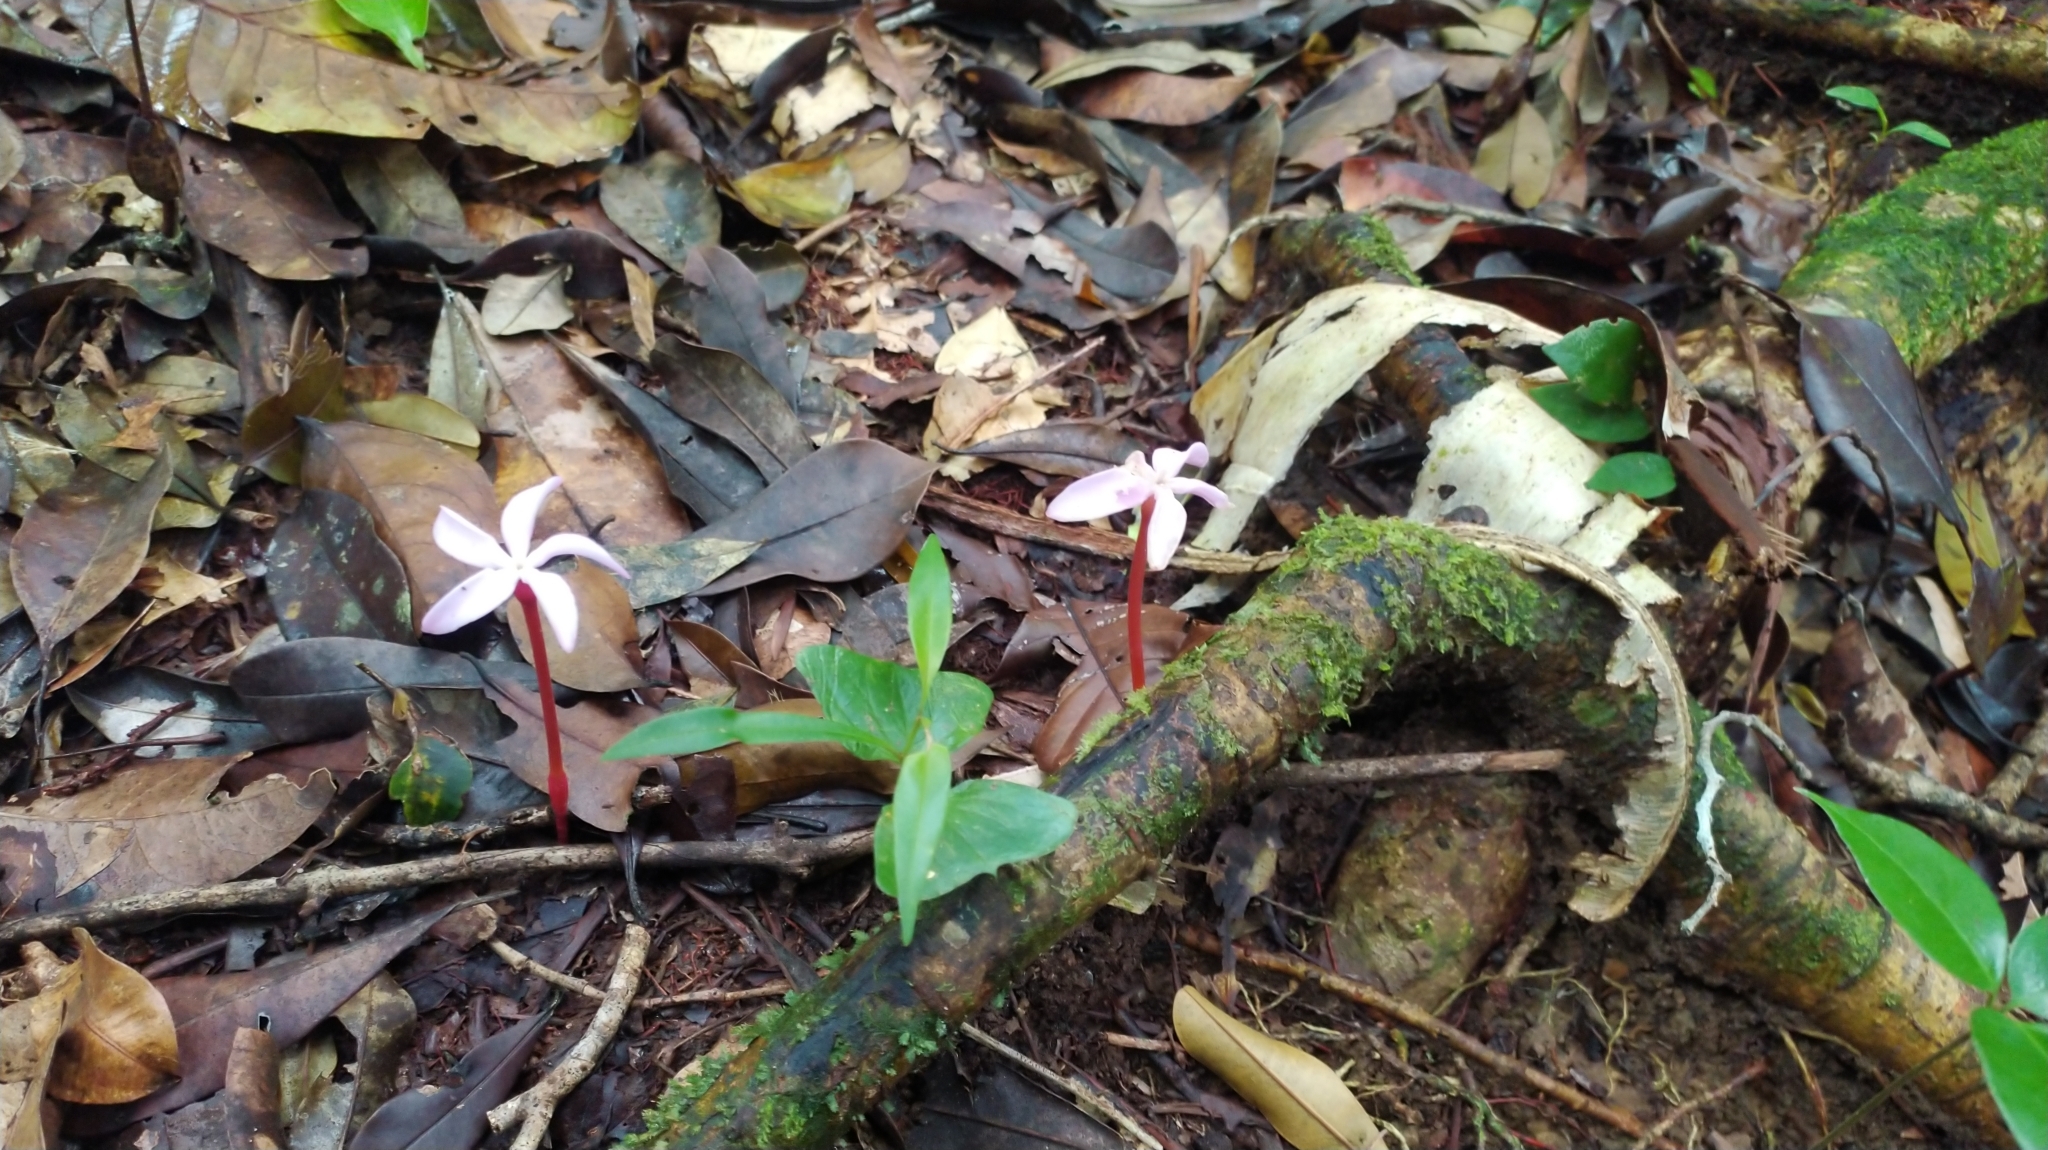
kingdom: Plantae
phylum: Tracheophyta
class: Magnoliopsida
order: Gentianales
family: Gentianaceae
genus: Voyria
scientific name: Voyria rosea
